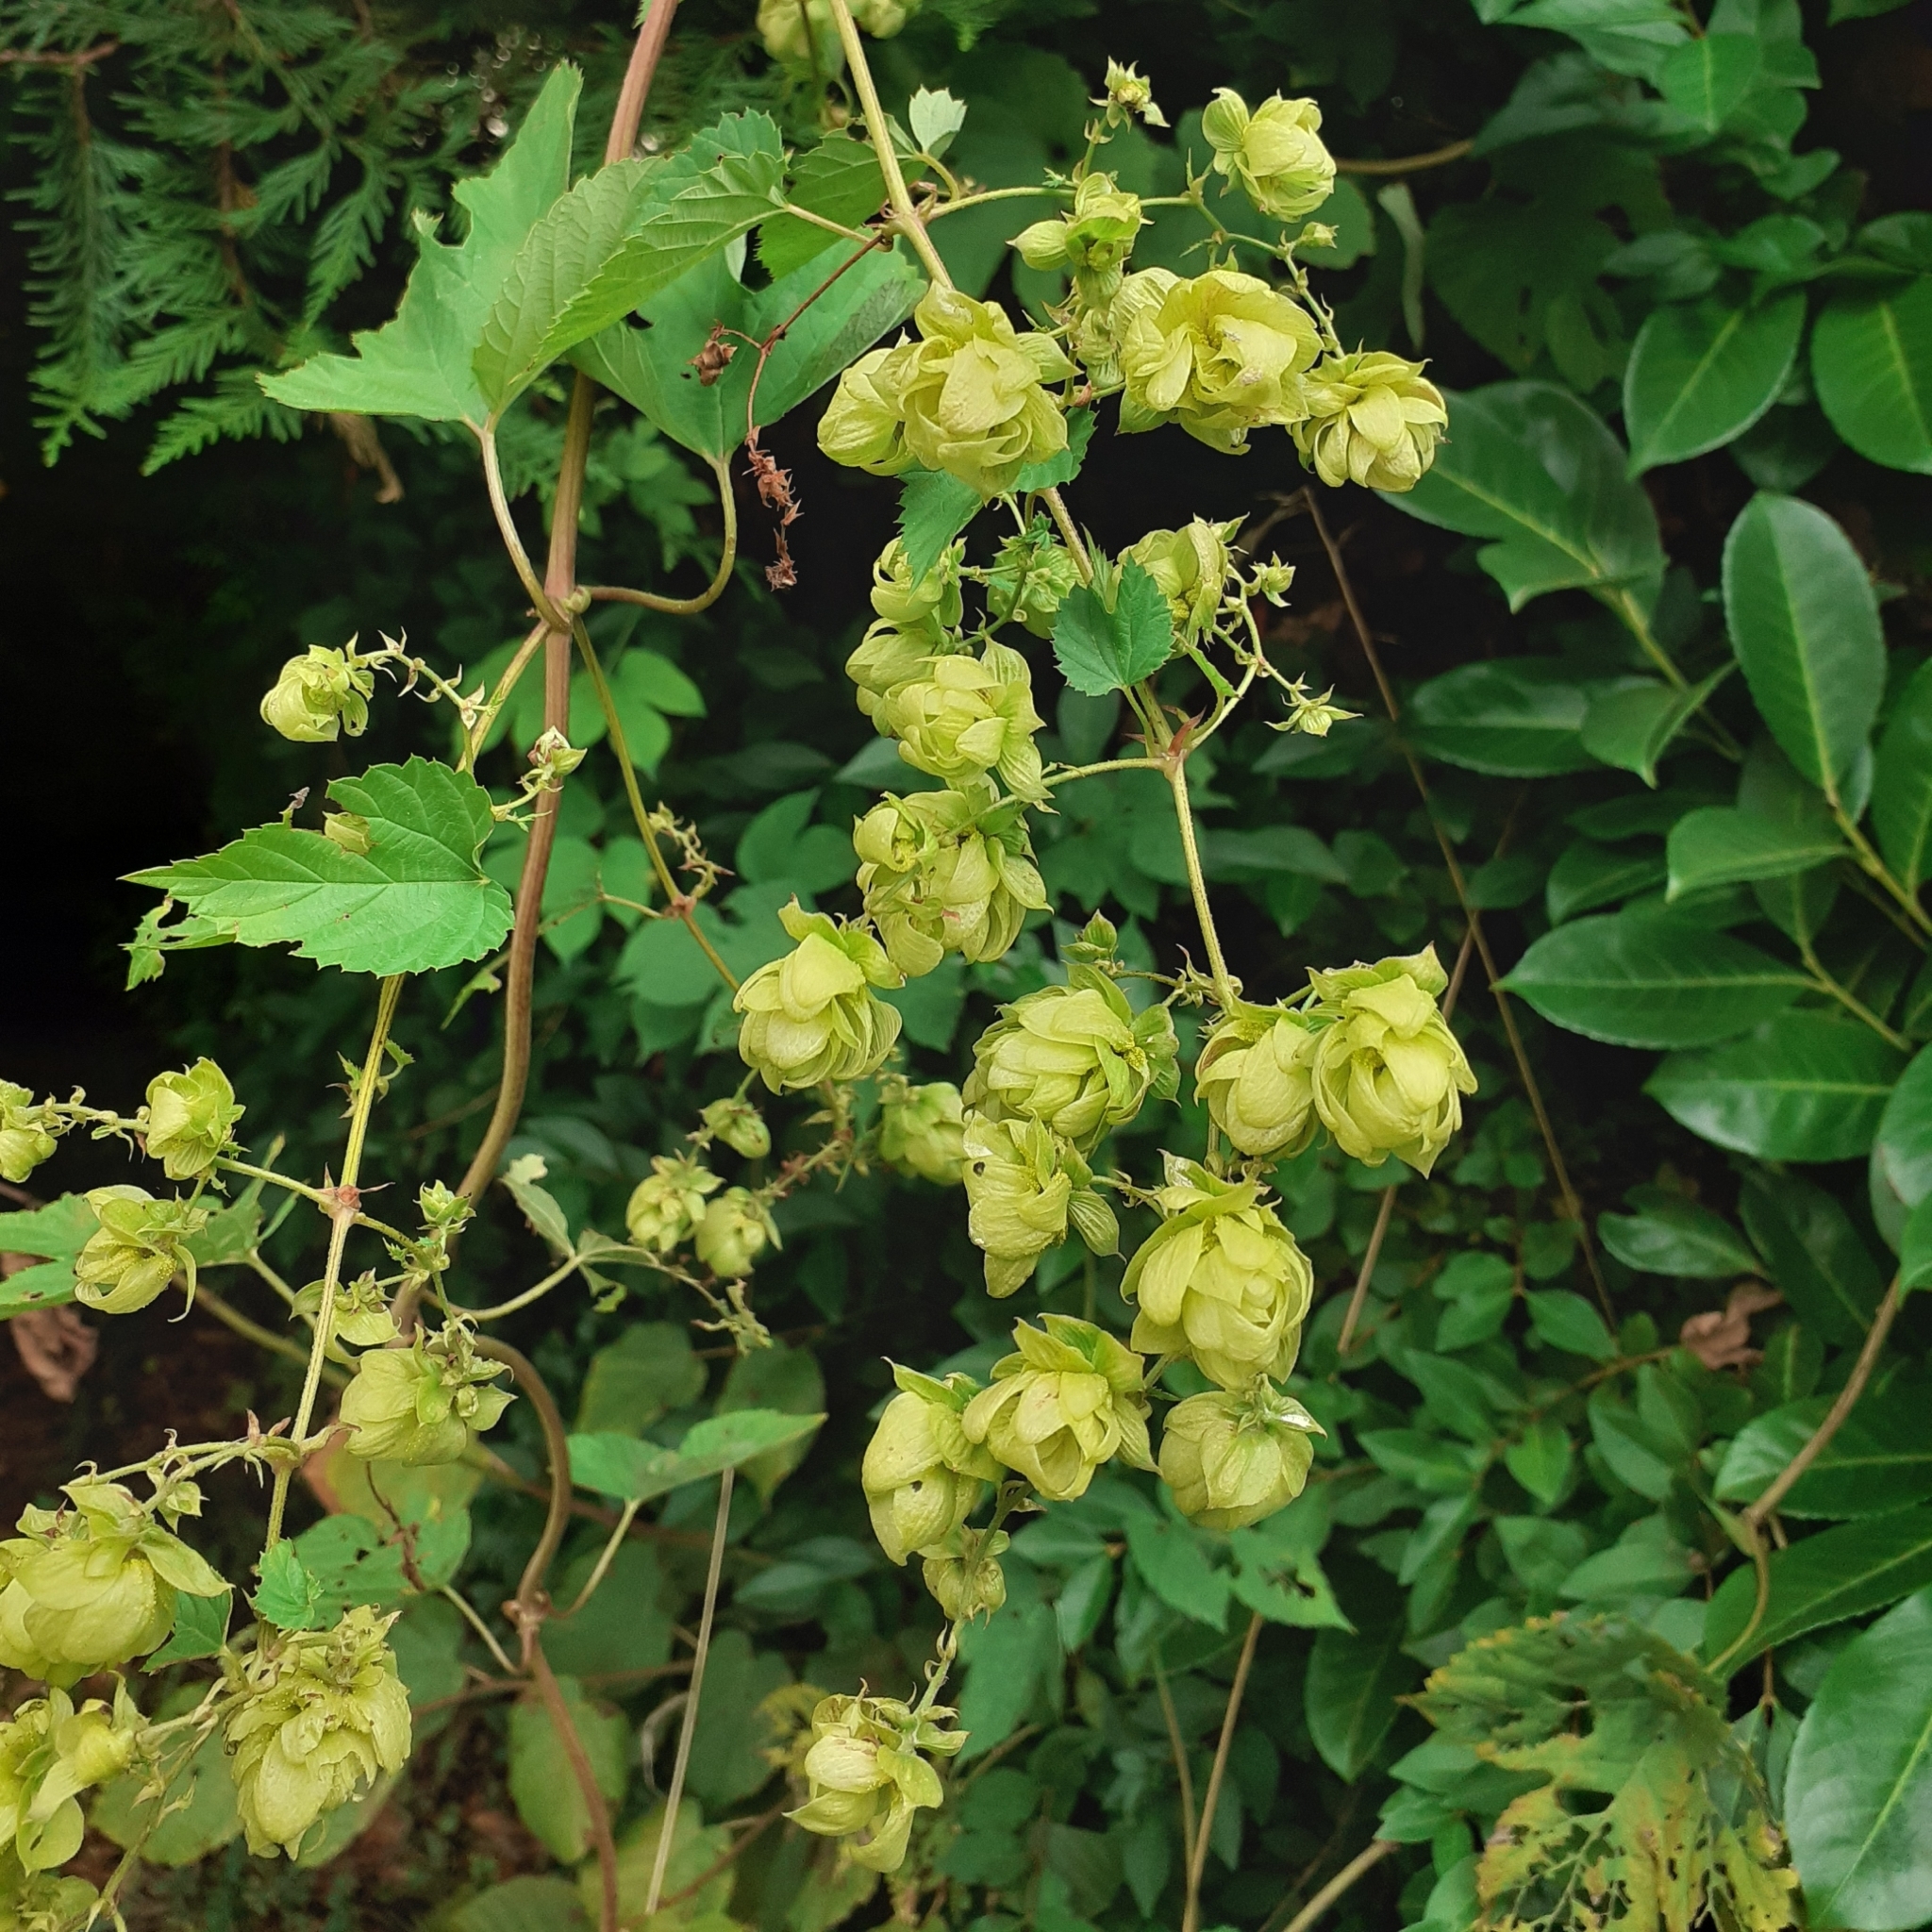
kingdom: Plantae
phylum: Tracheophyta
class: Magnoliopsida
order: Rosales
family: Cannabaceae
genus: Humulus
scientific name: Humulus lupulus
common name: Hop
